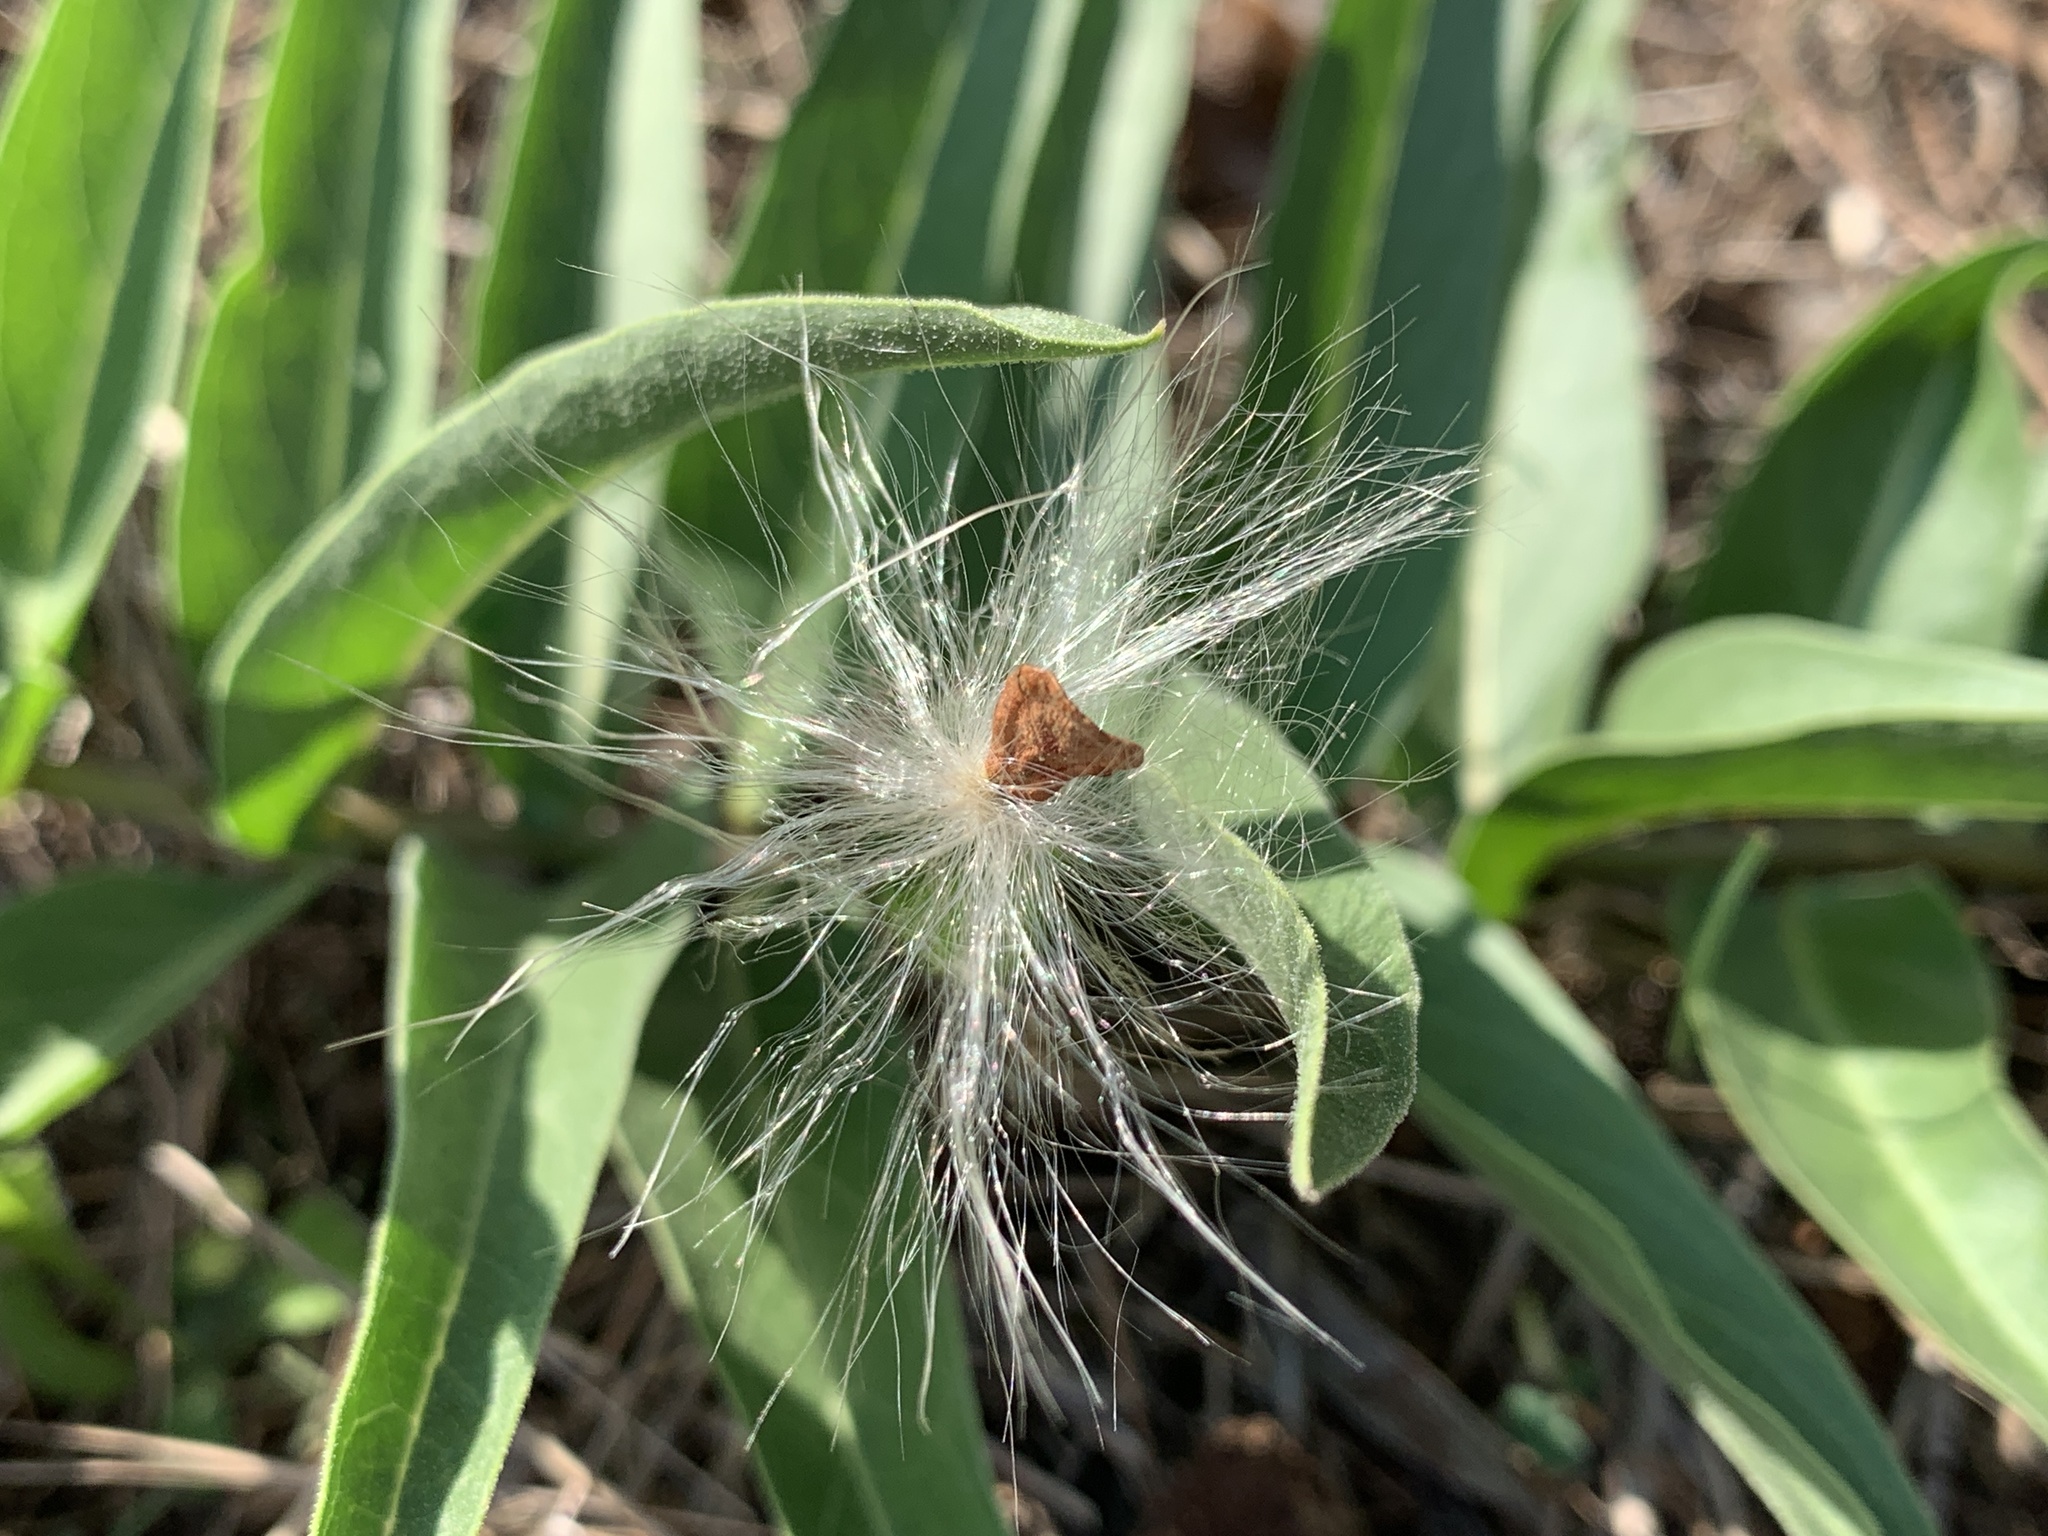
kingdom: Plantae
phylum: Tracheophyta
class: Magnoliopsida
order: Gentianales
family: Apocynaceae
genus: Asclepias
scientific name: Asclepias asperula
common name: Antelope horns
